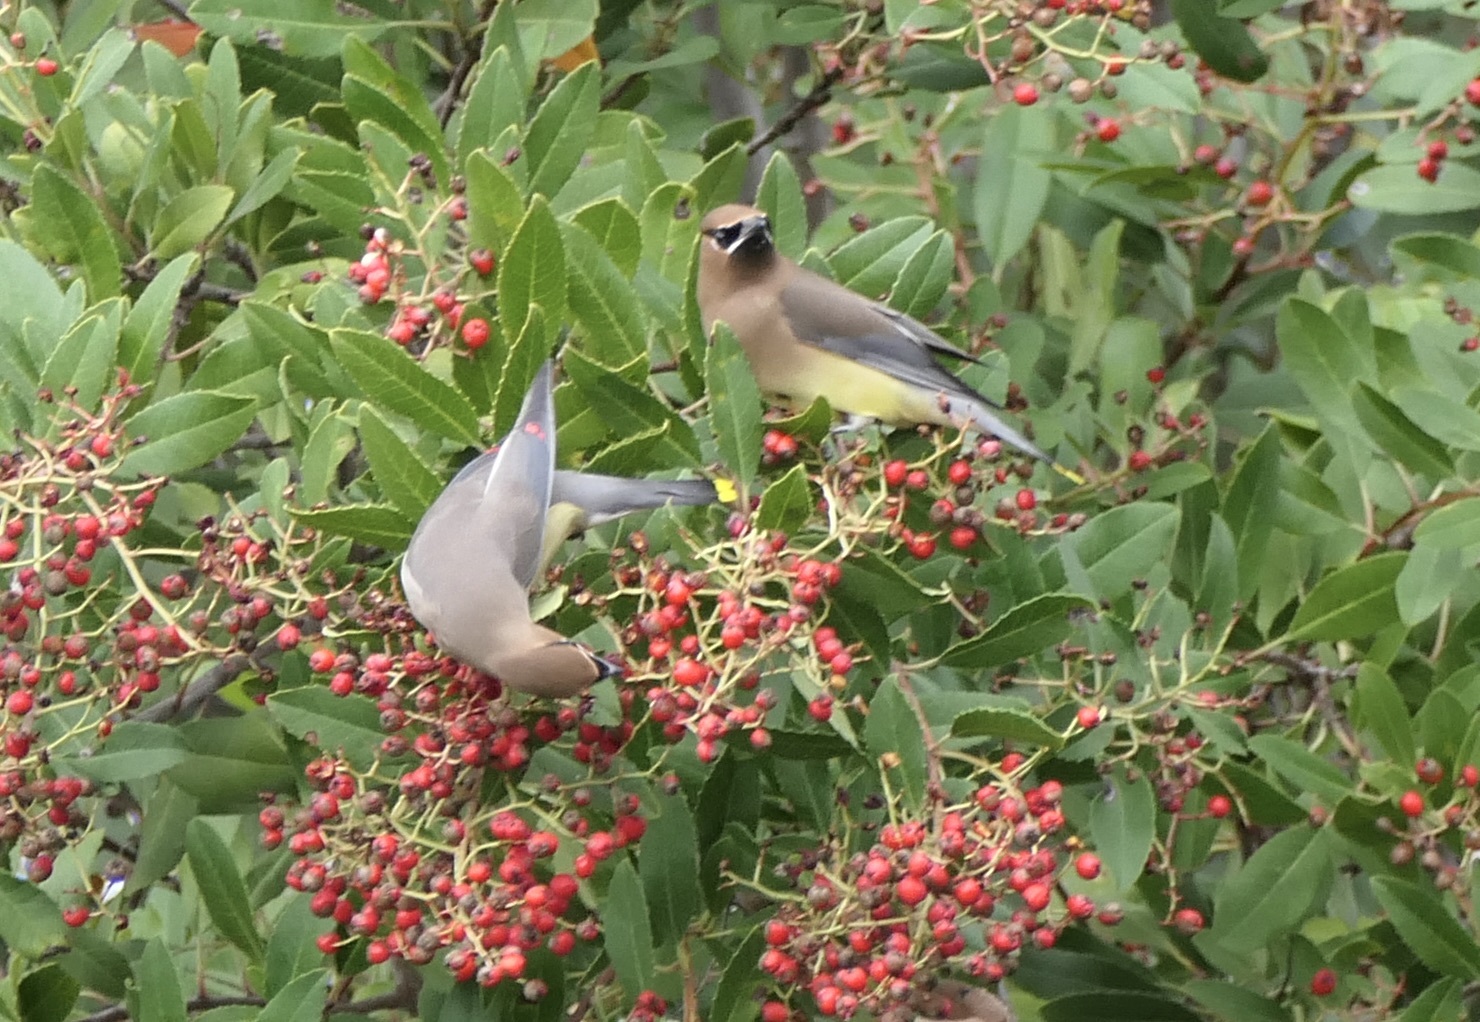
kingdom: Animalia
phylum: Chordata
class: Aves
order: Passeriformes
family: Bombycillidae
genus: Bombycilla
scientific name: Bombycilla cedrorum
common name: Cedar waxwing
